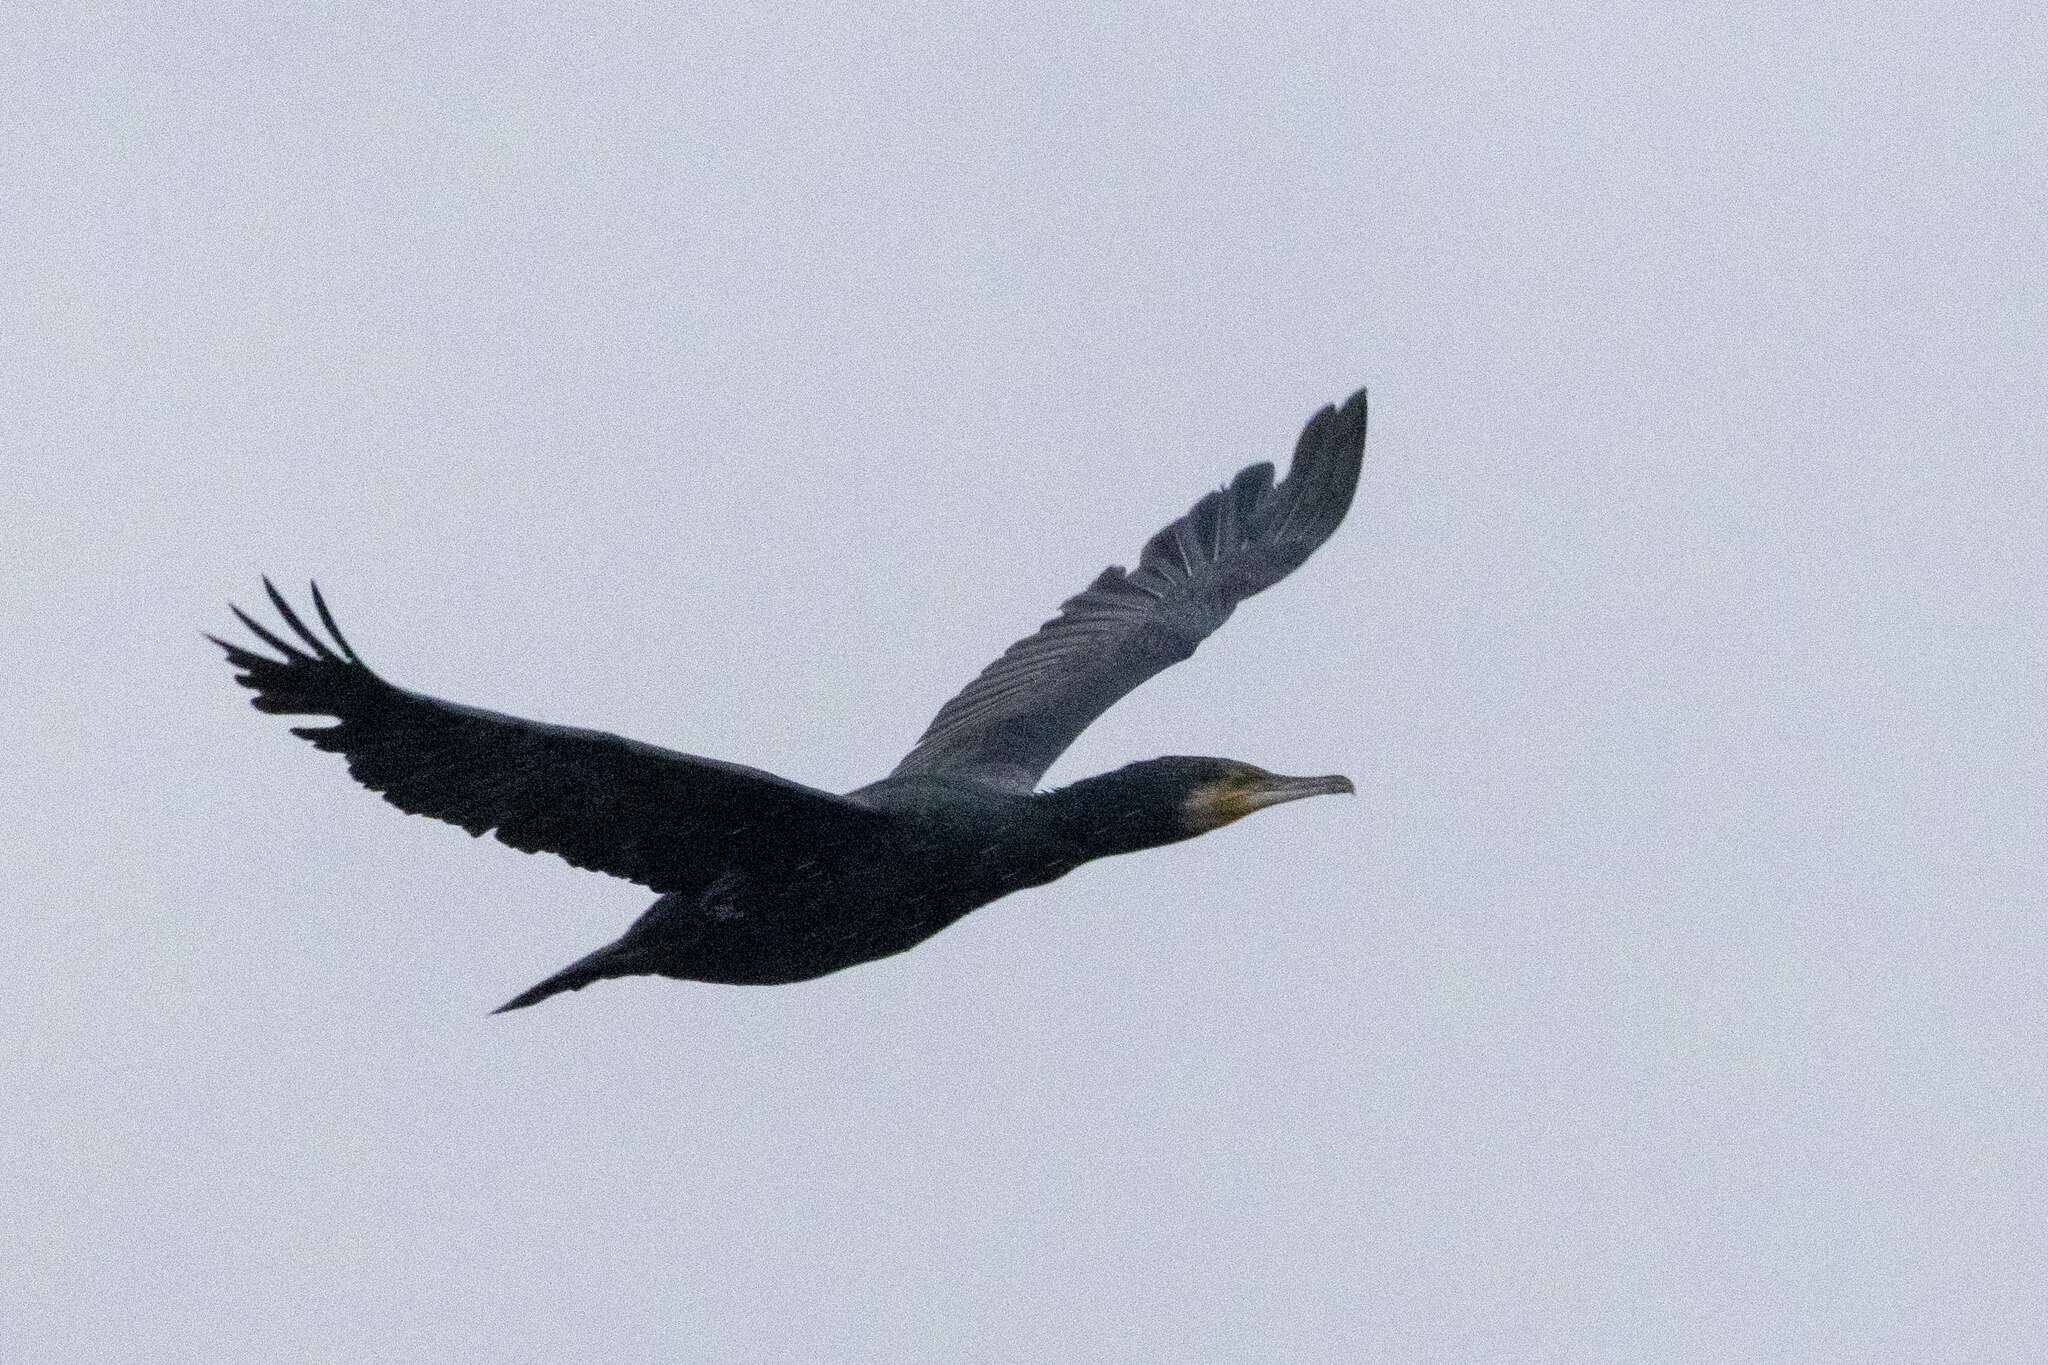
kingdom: Animalia
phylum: Chordata
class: Aves
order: Suliformes
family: Phalacrocoracidae
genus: Phalacrocorax
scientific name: Phalacrocorax carbo
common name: Great cormorant
